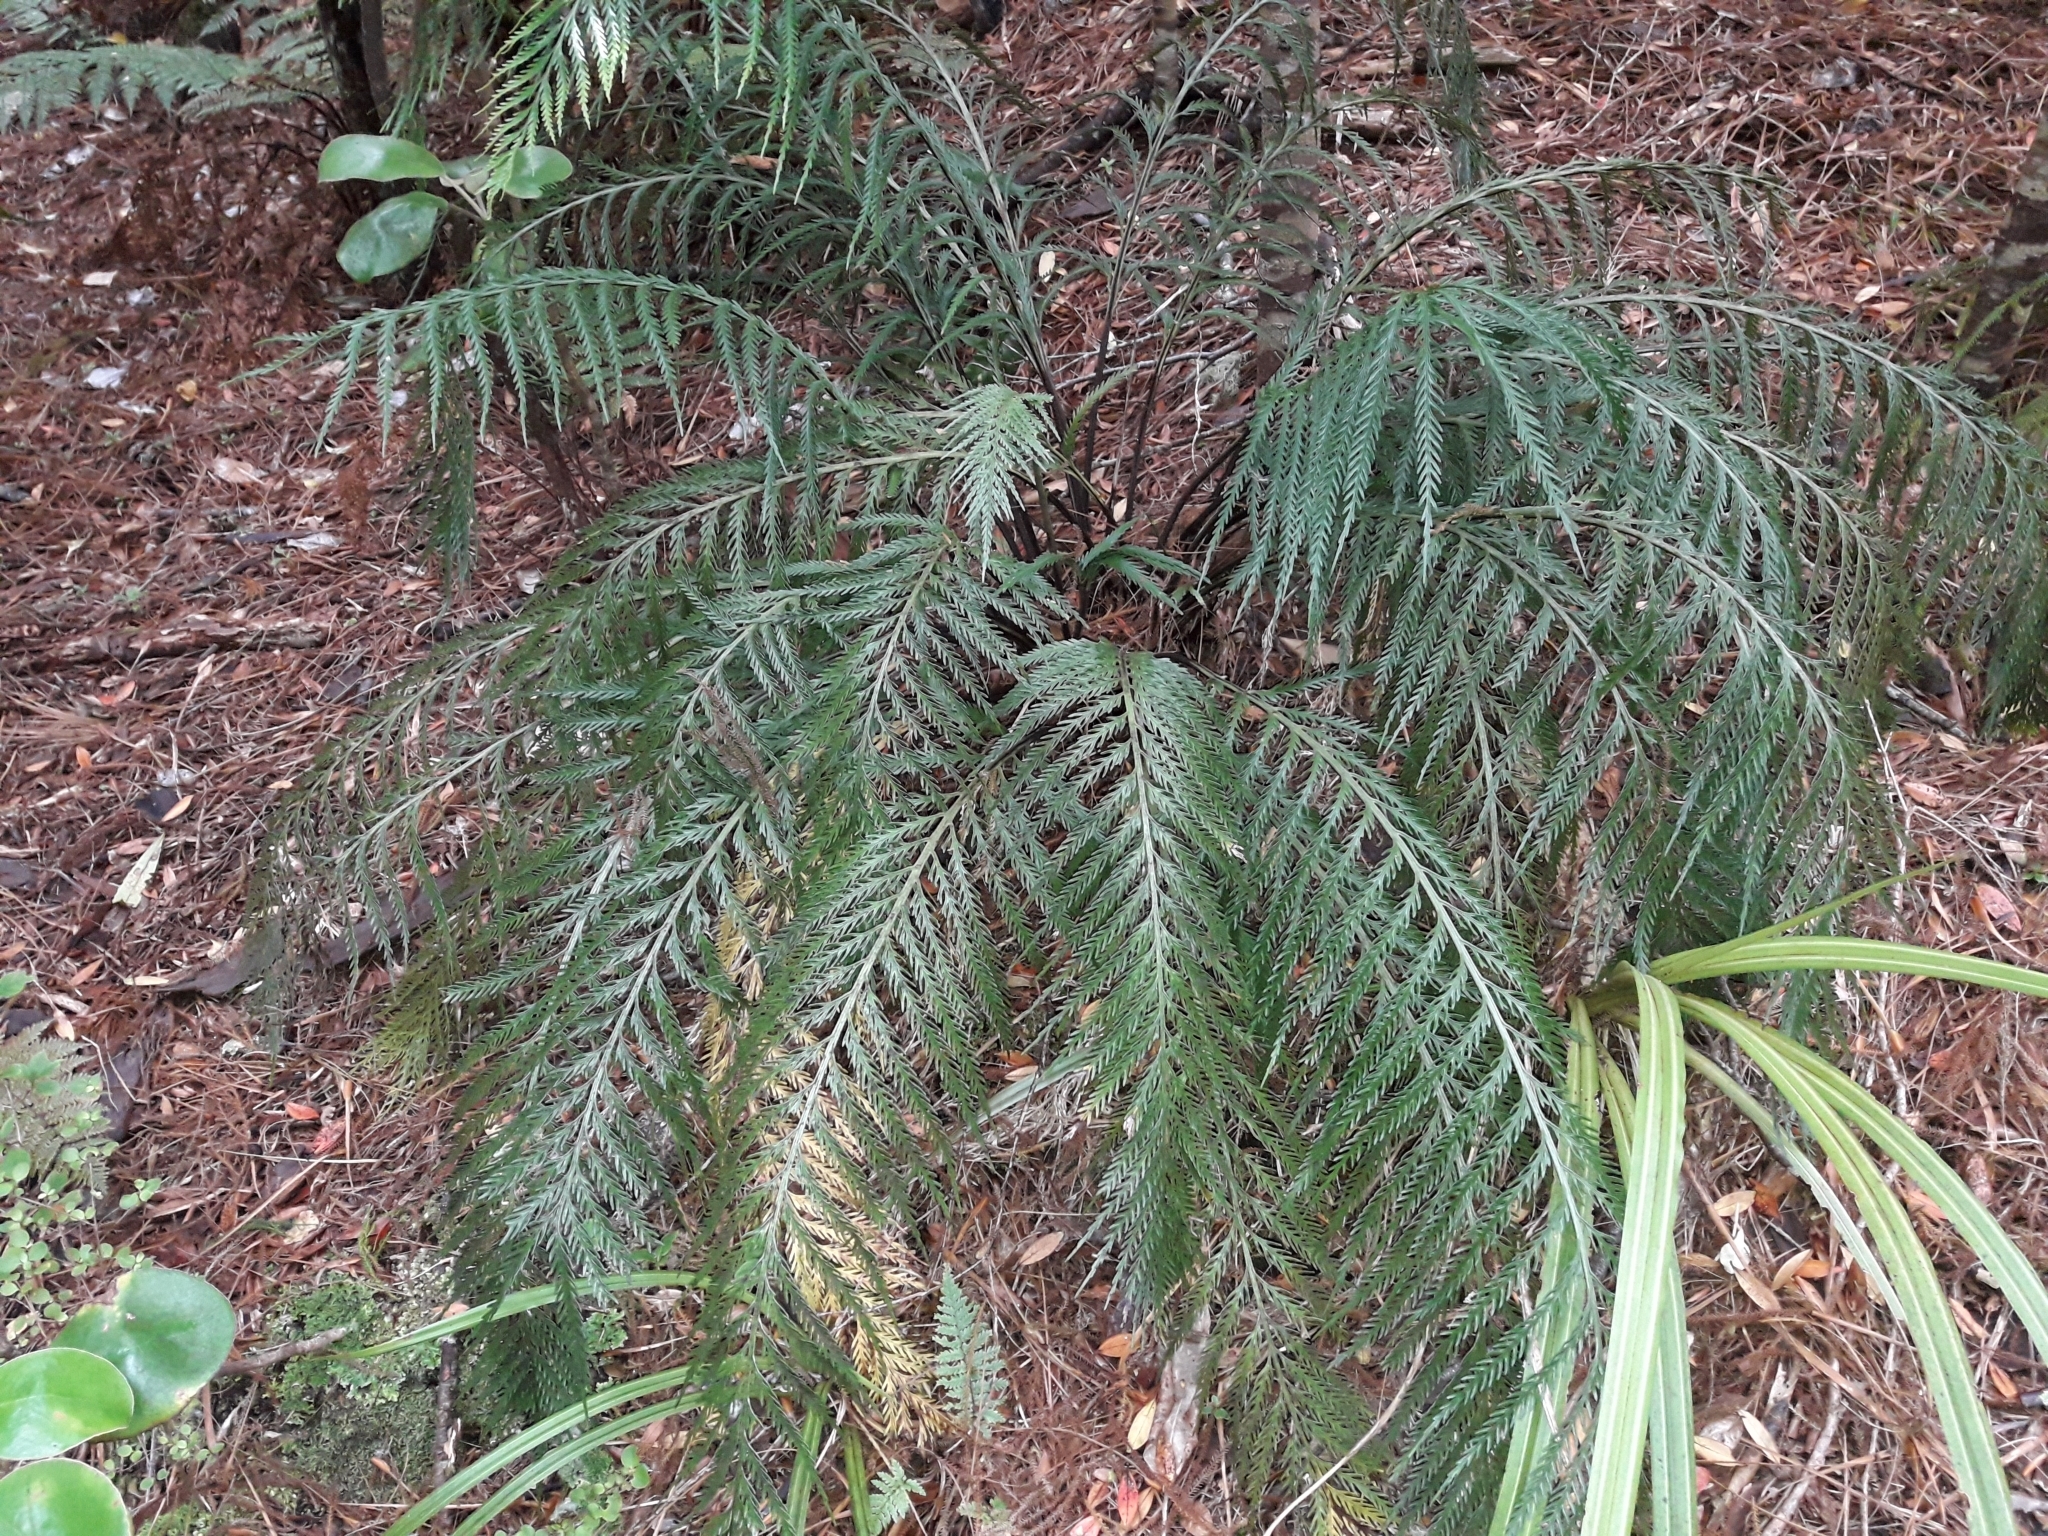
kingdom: Plantae
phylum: Tracheophyta
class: Polypodiopsida
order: Polypodiales
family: Aspleniaceae
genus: Asplenium
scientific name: Asplenium flaccidum
